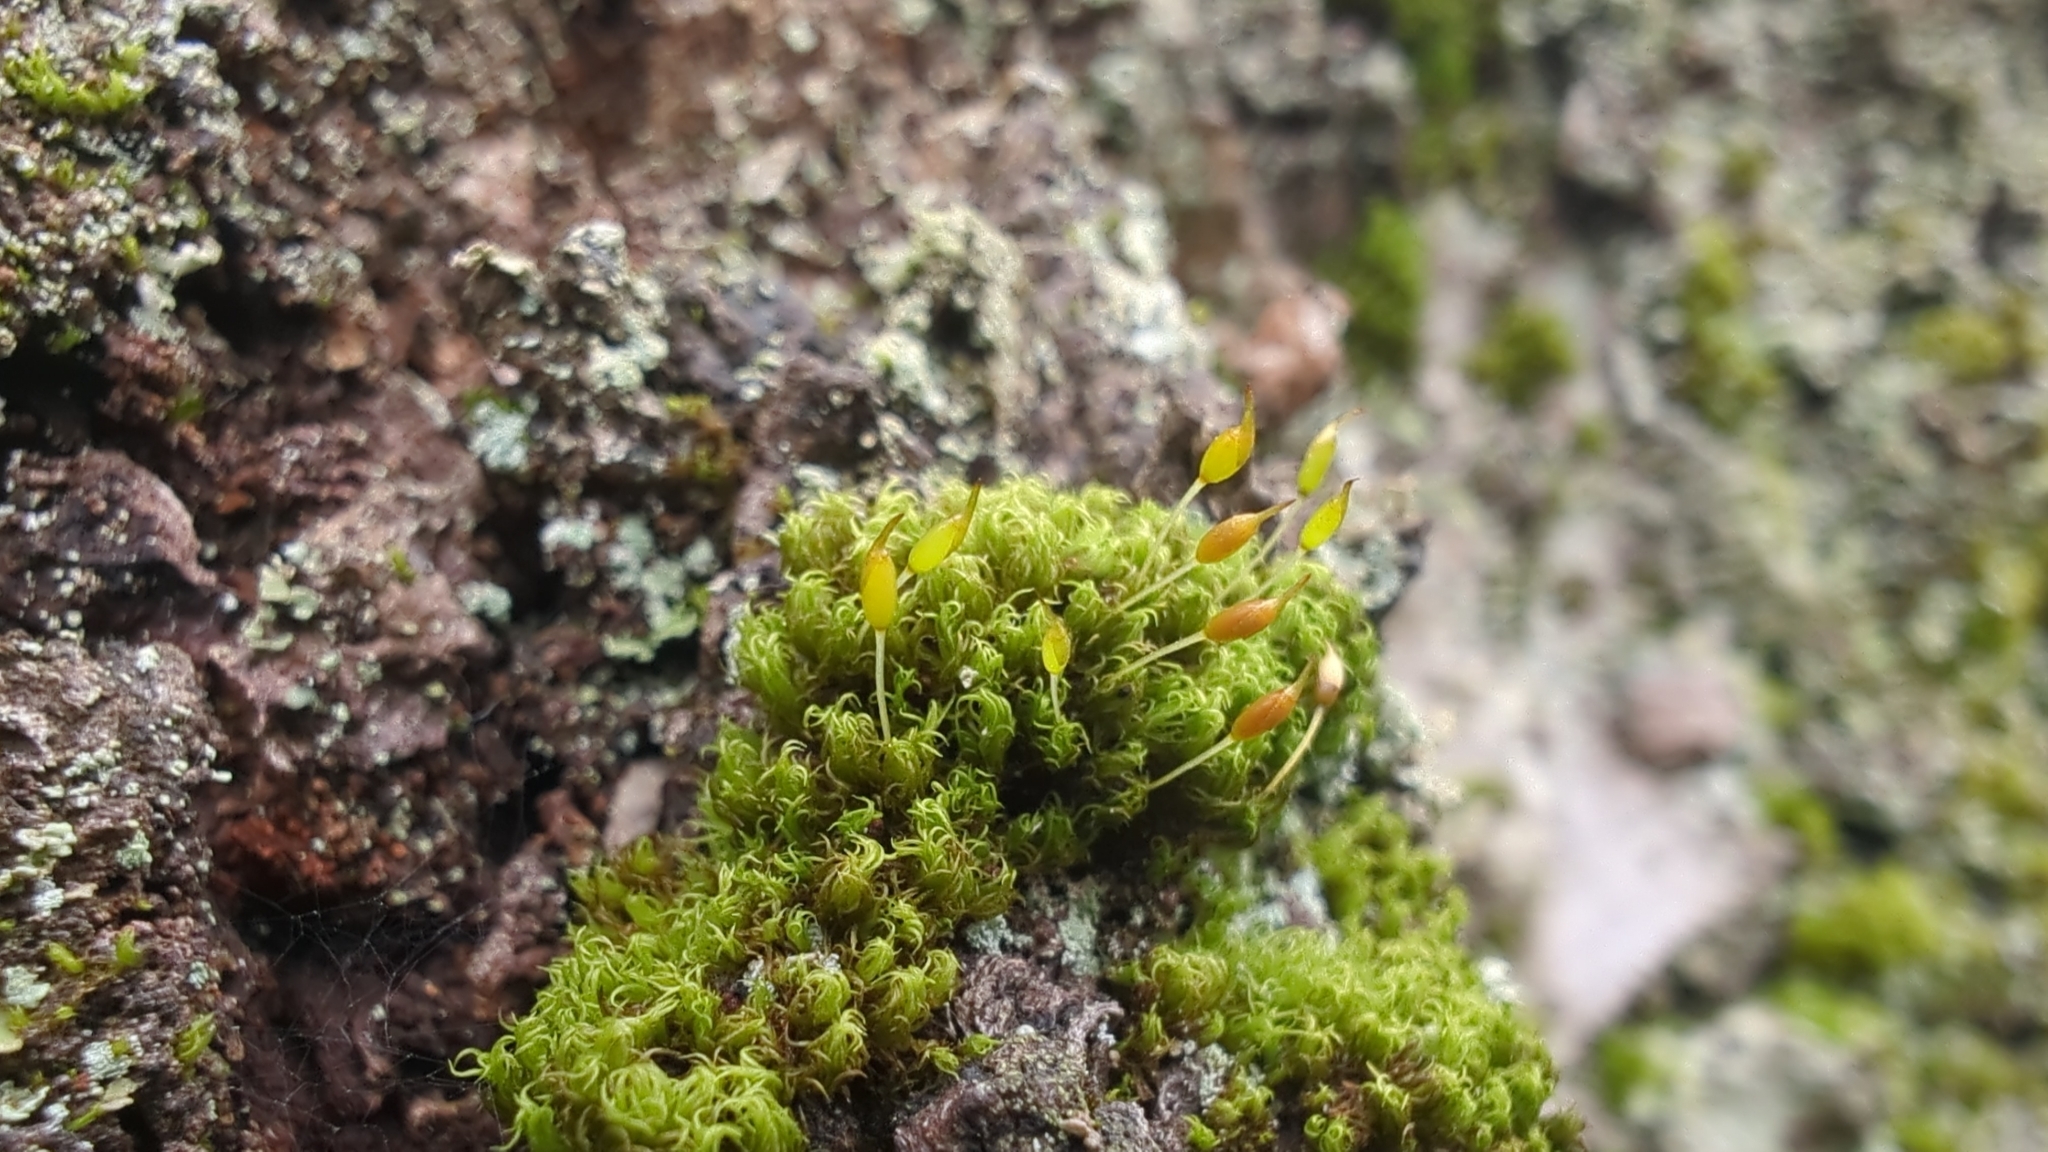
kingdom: Plantae
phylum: Bryophyta
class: Bryopsida
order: Dicranales
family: Rhabdoweisiaceae
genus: Dicranoweisia
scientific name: Dicranoweisia cirrata
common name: Common pincushion
